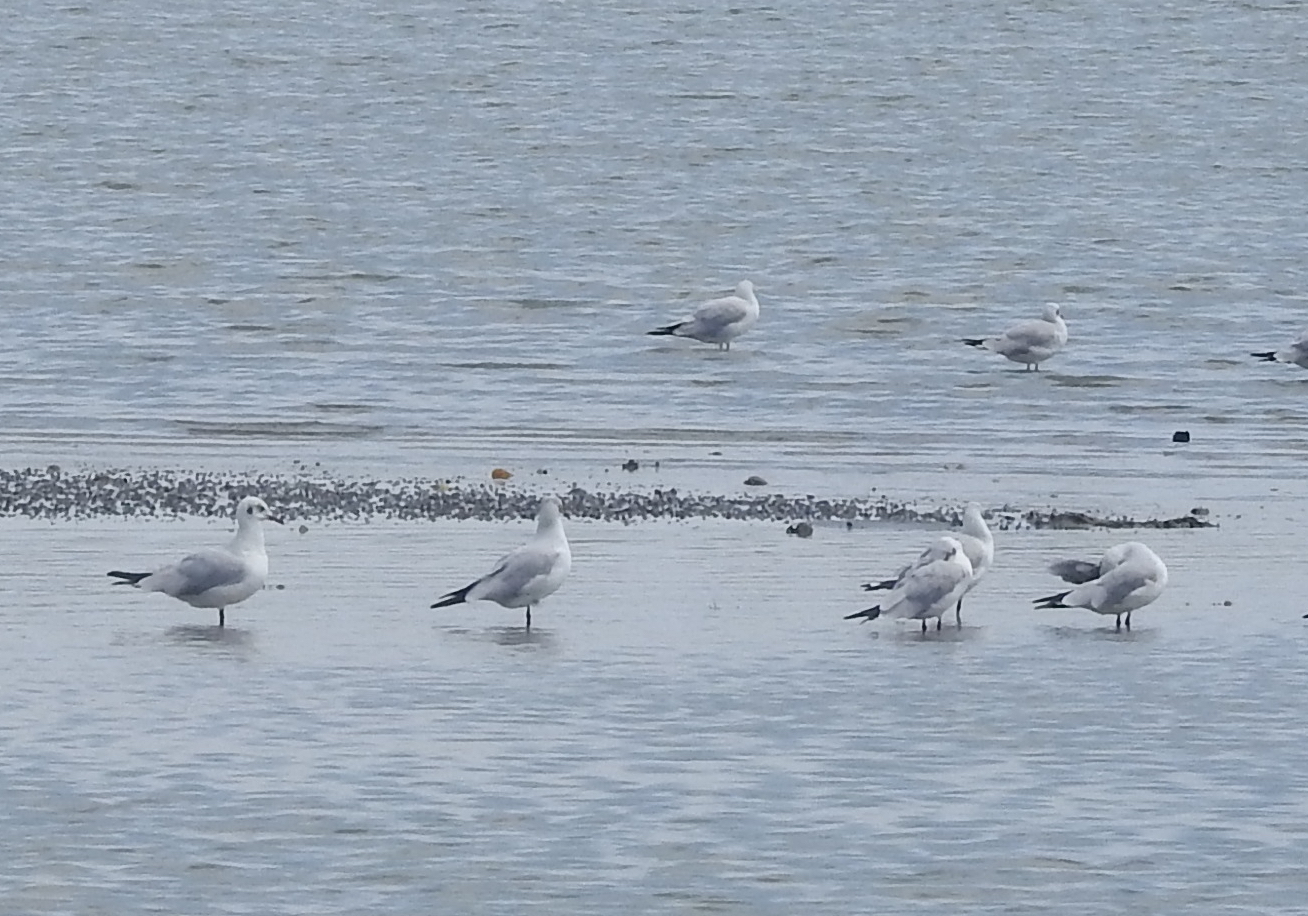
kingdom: Animalia
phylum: Chordata
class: Aves
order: Charadriiformes
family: Laridae
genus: Chroicocephalus
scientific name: Chroicocephalus ridibundus
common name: Black-headed gull
